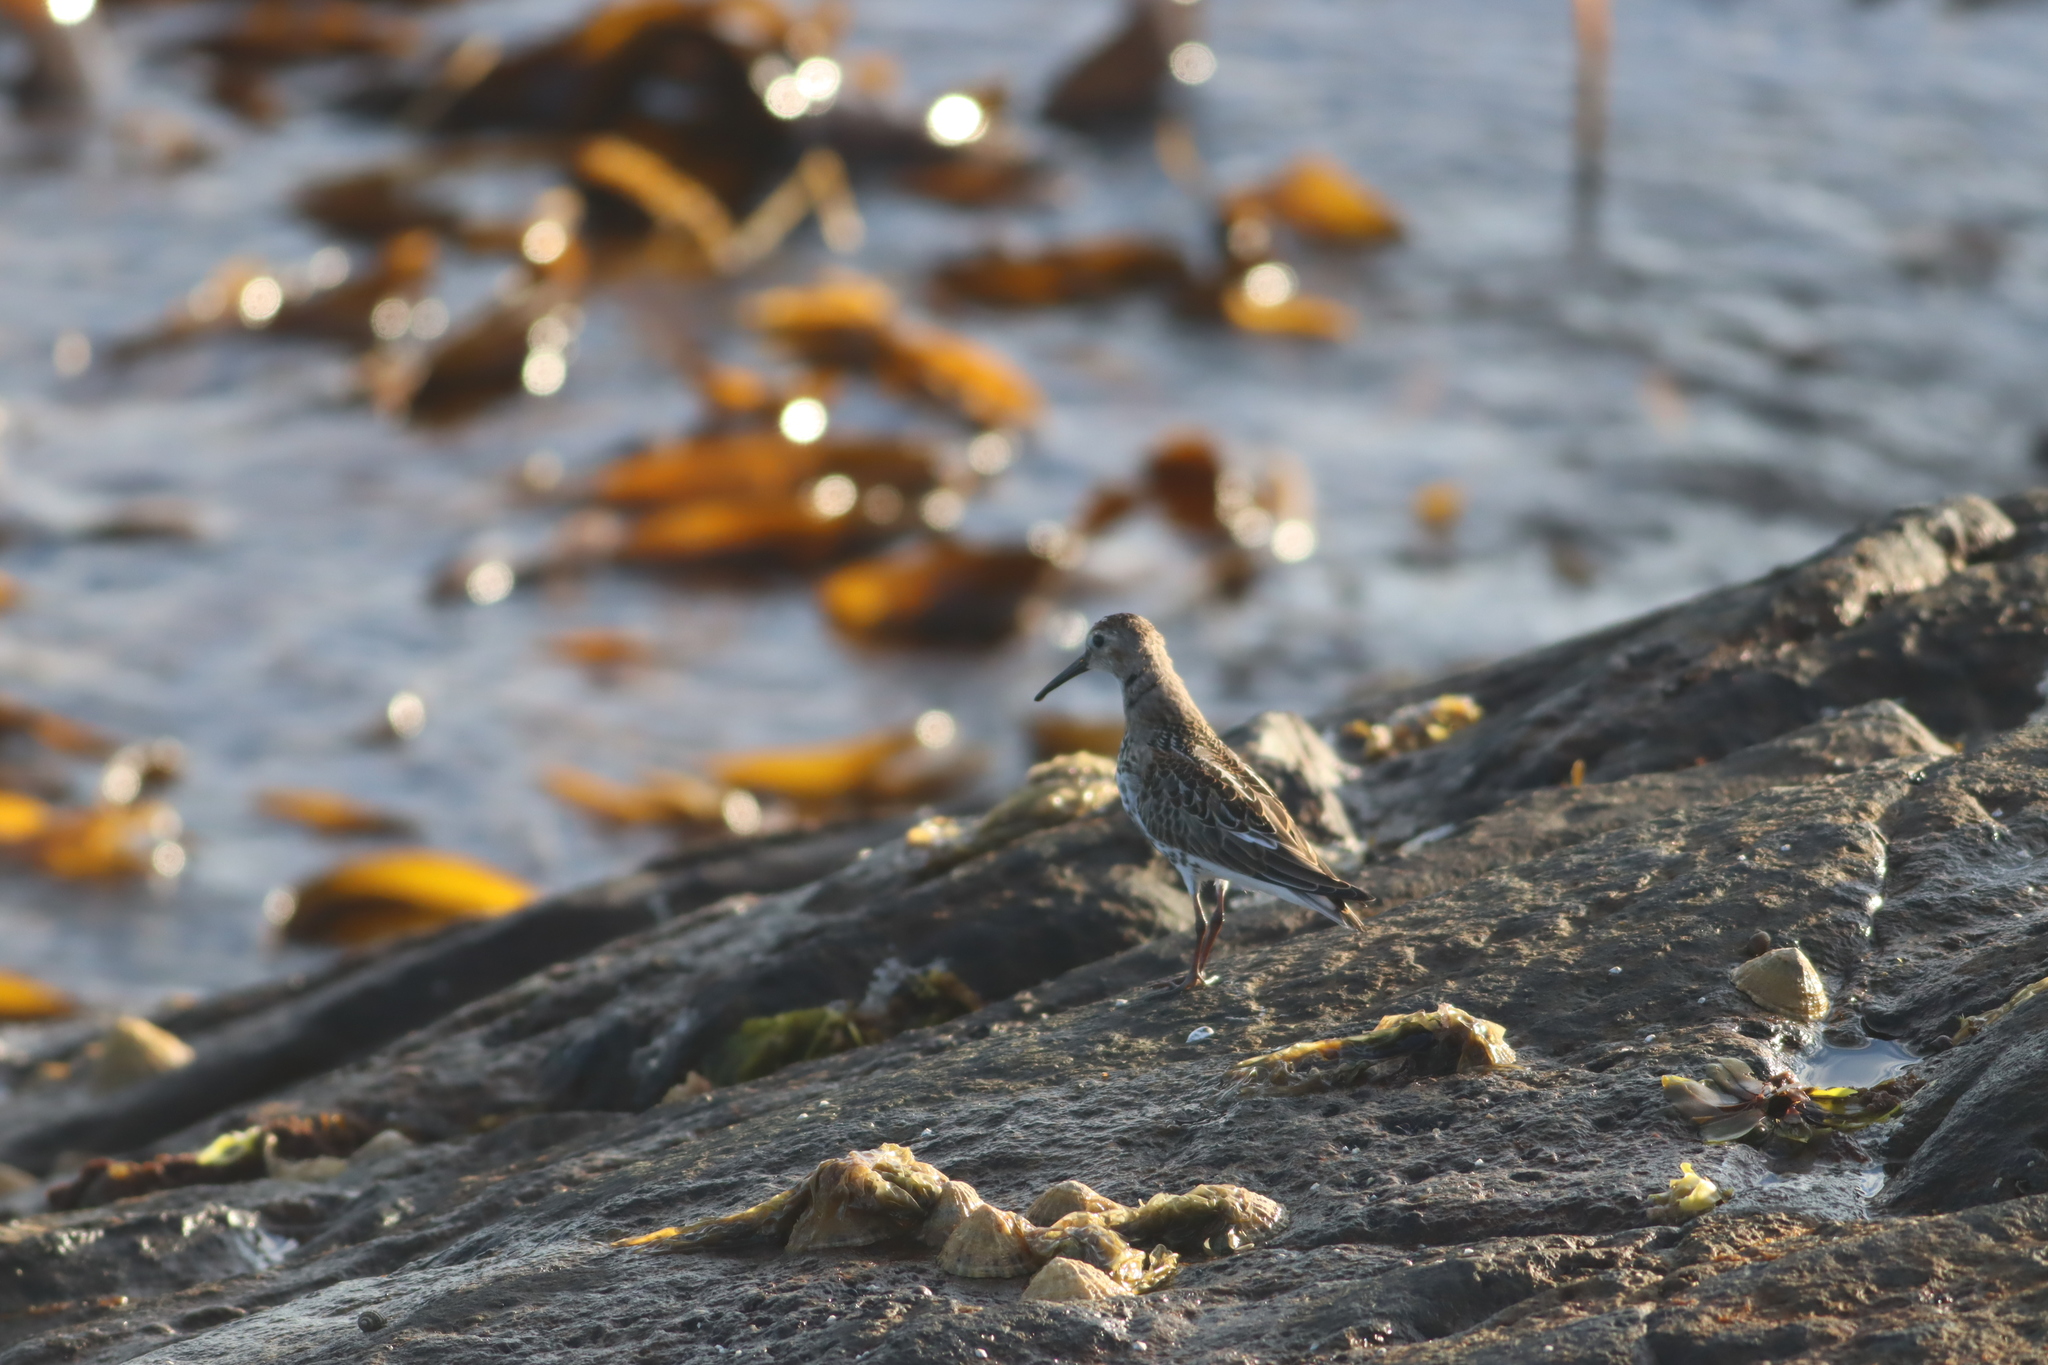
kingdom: Animalia
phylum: Chordata
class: Aves
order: Charadriiformes
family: Scolopacidae
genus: Calidris
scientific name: Calidris alpina
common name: Dunlin
